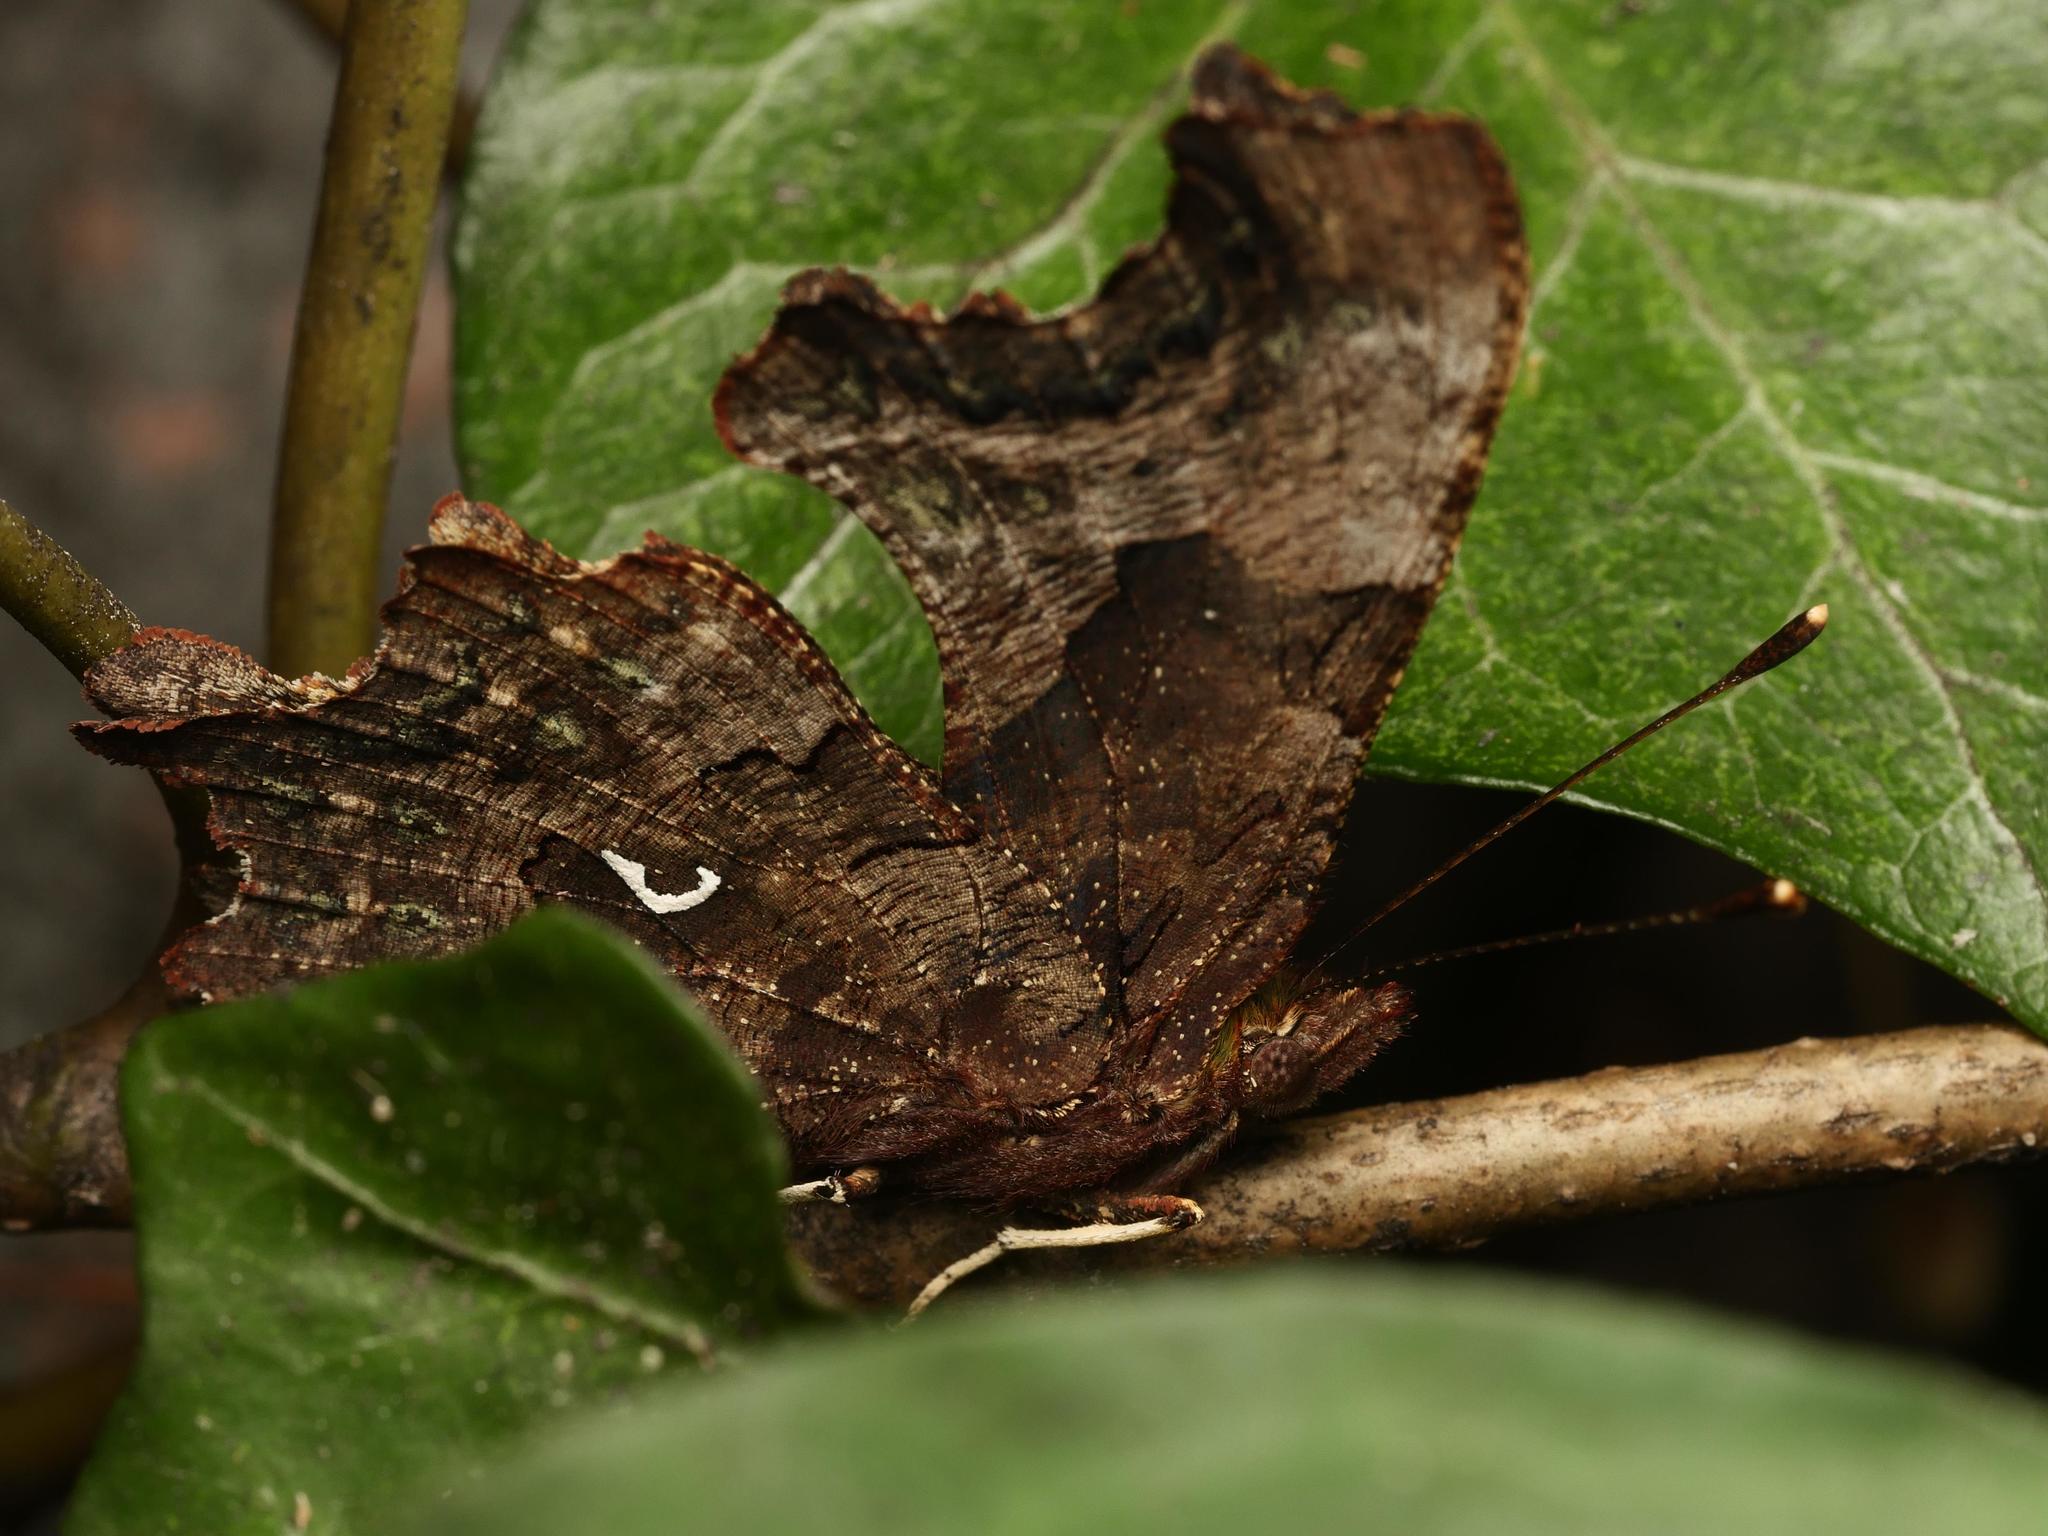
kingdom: Animalia
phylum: Arthropoda
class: Insecta
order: Lepidoptera
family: Nymphalidae
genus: Polygonia
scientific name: Polygonia c-album
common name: Comma
